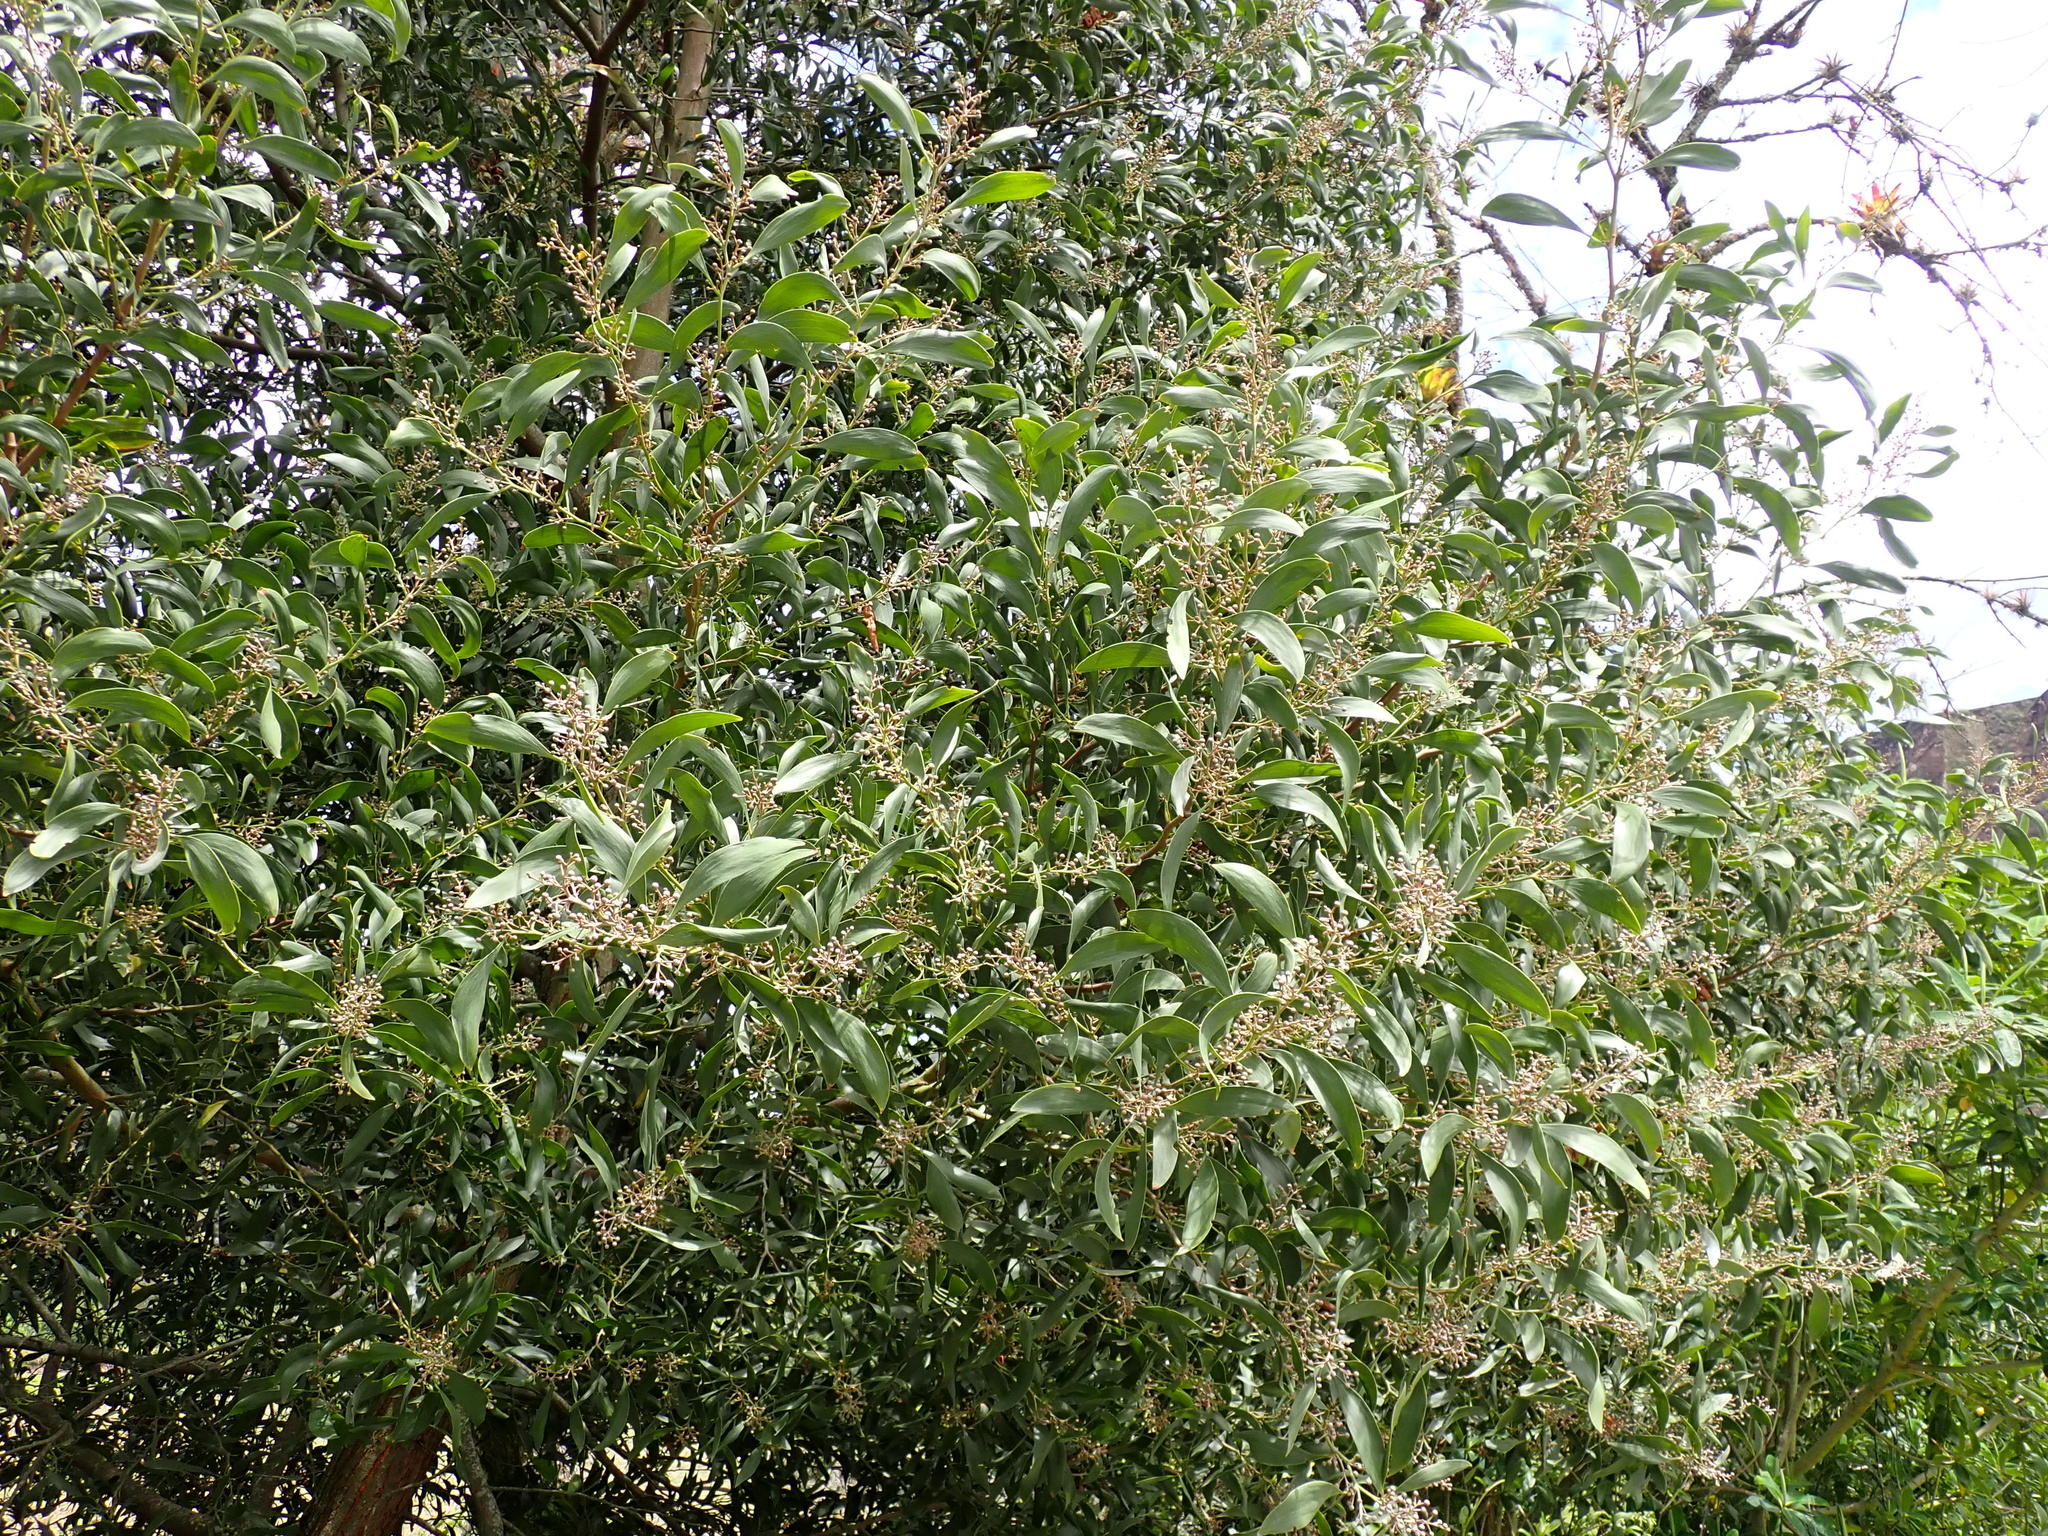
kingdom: Plantae
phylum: Tracheophyta
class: Magnoliopsida
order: Fabales
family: Fabaceae
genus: Acacia
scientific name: Acacia melanoxylon
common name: Blackwood
